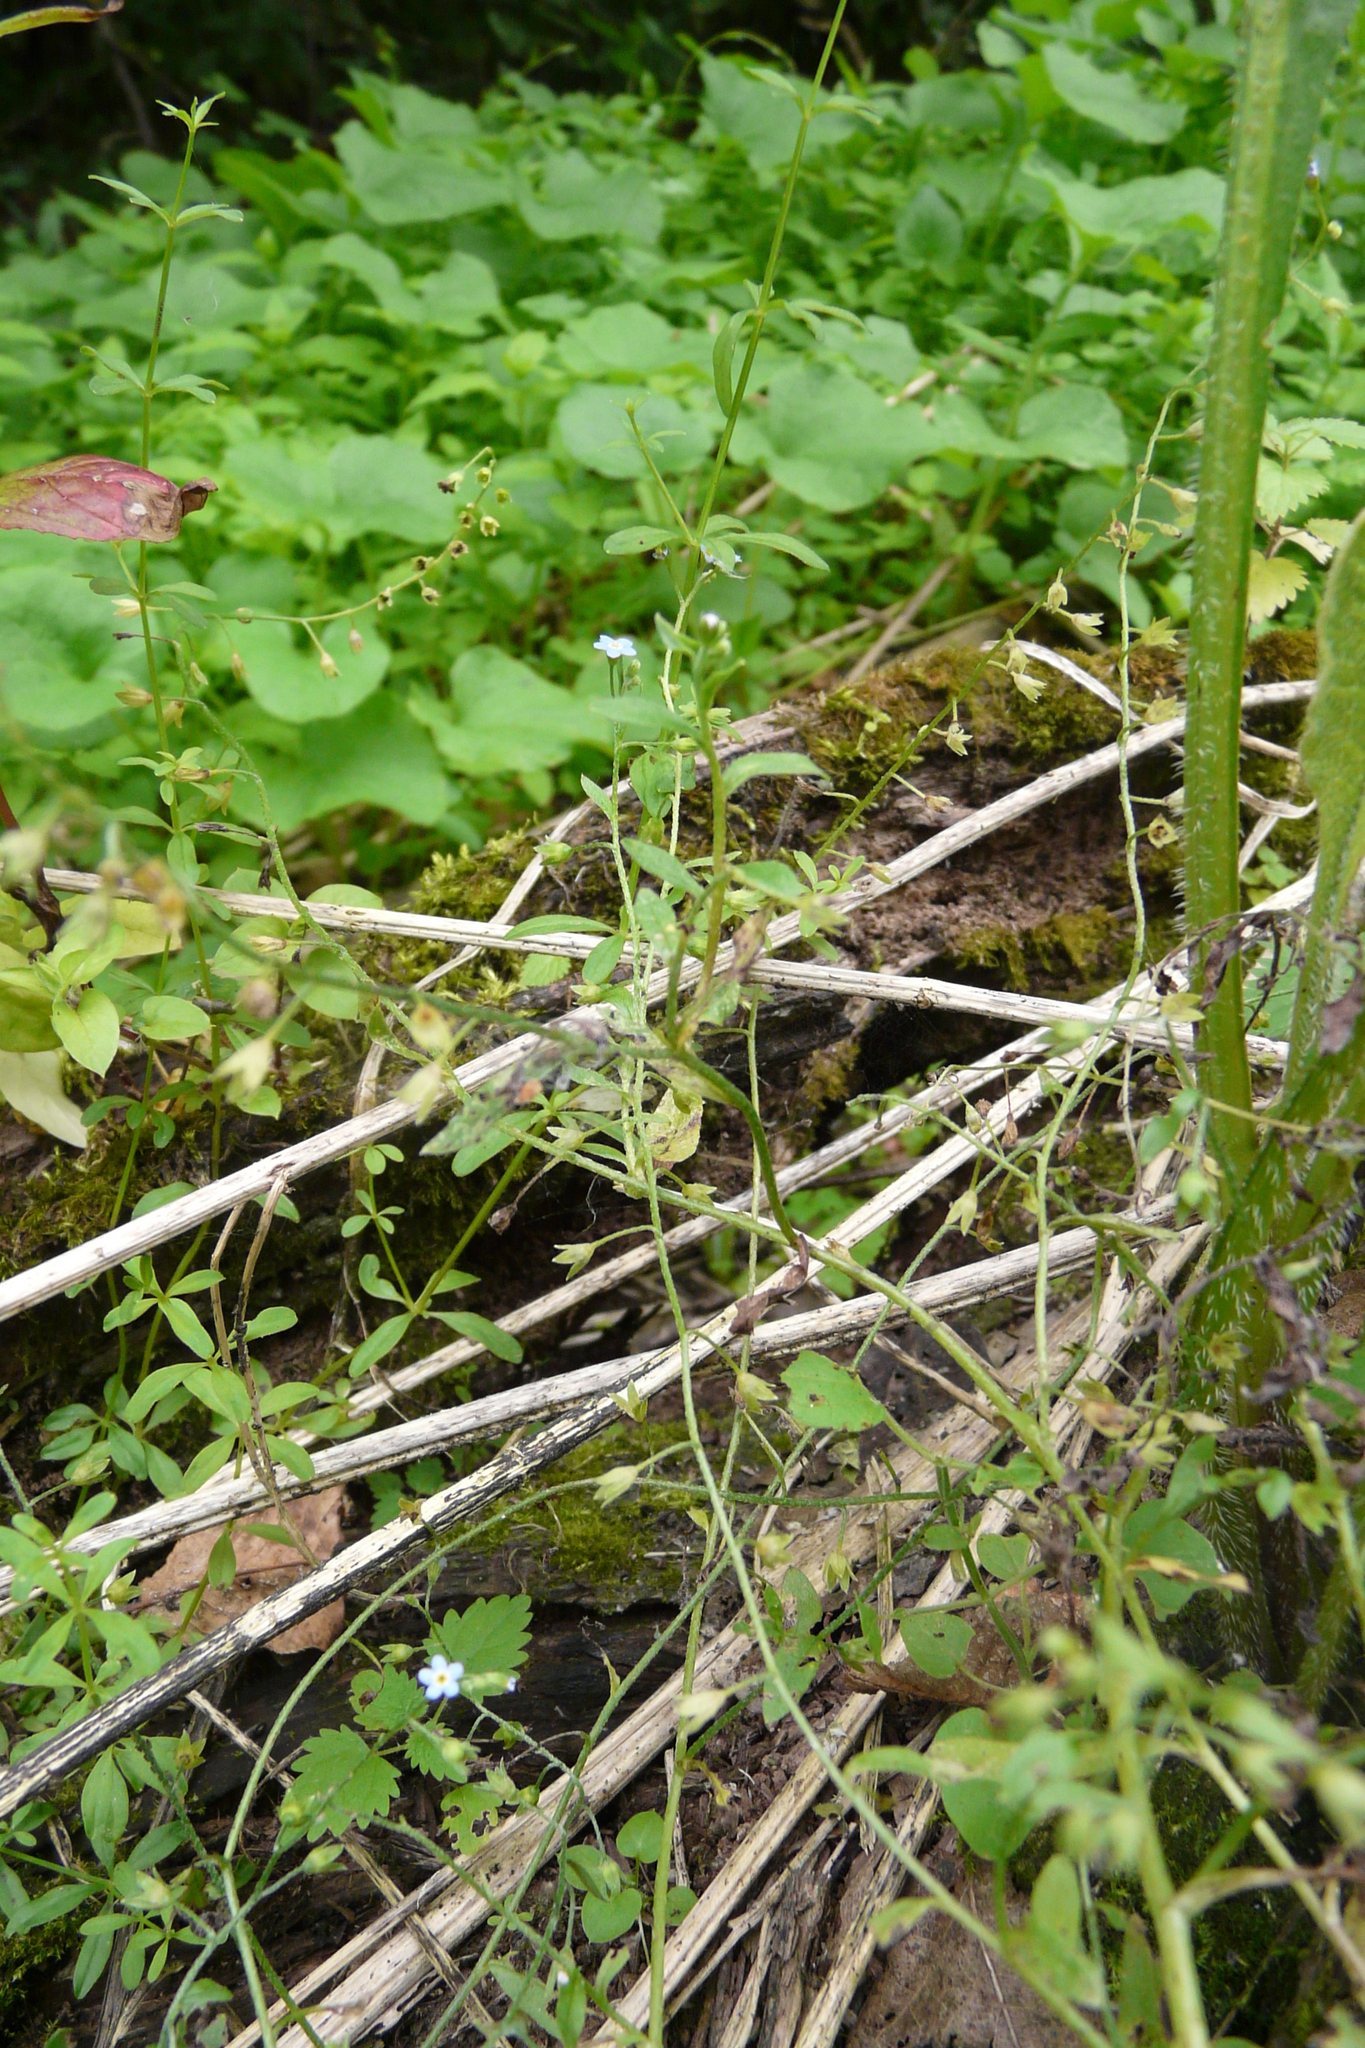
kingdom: Plantae
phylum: Tracheophyta
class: Magnoliopsida
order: Boraginales
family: Boraginaceae
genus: Myosotis
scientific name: Myosotis scorpioides
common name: Water forget-me-not
